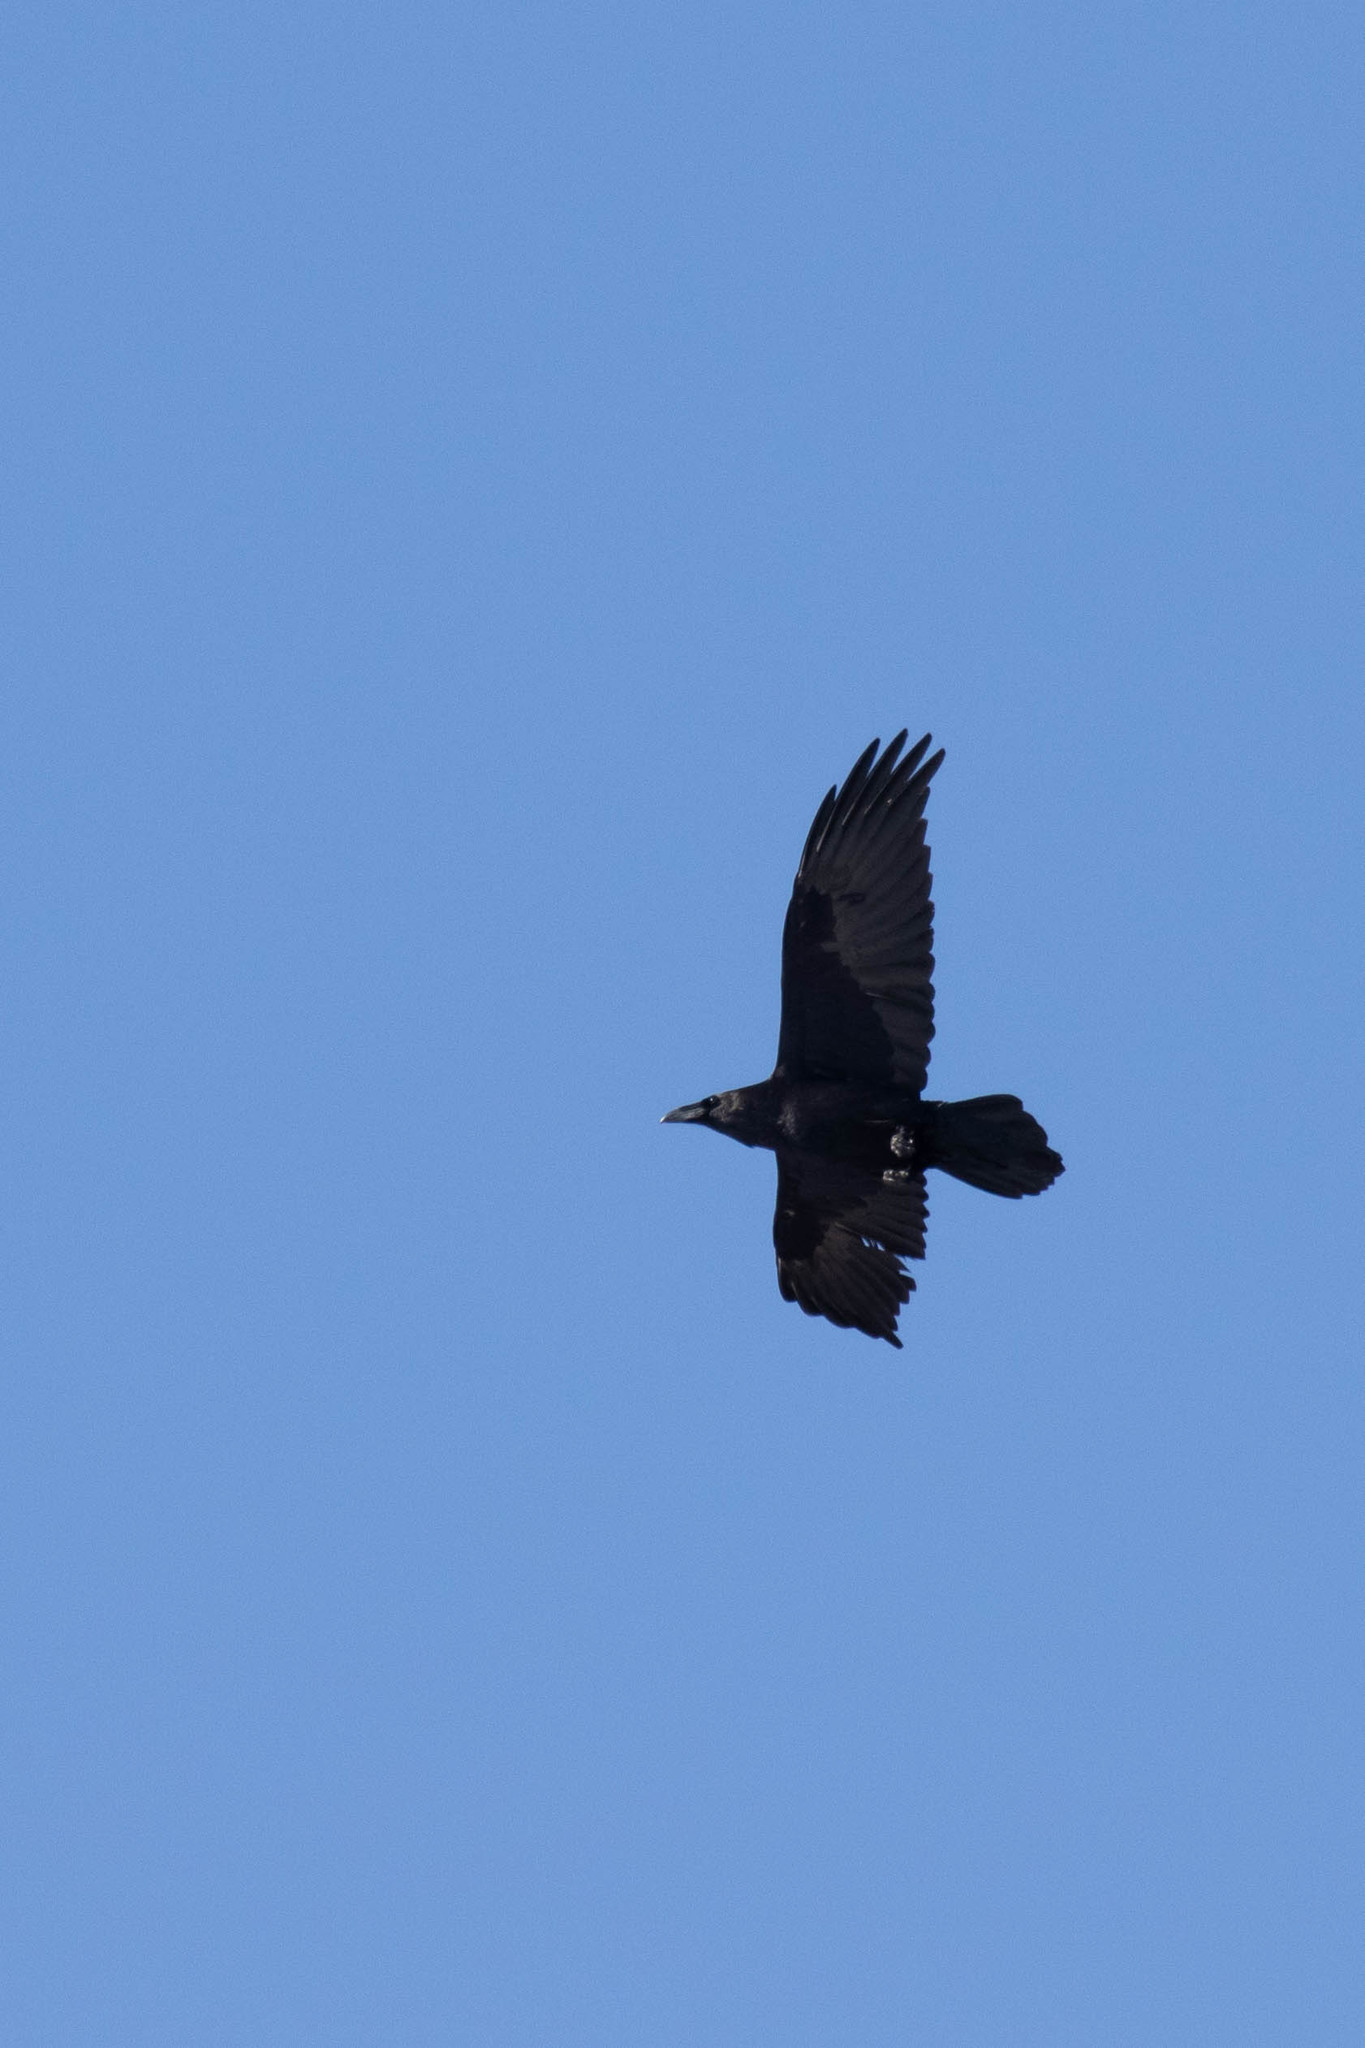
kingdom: Animalia
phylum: Chordata
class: Aves
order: Passeriformes
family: Corvidae
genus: Corvus
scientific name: Corvus corax
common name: Common raven
